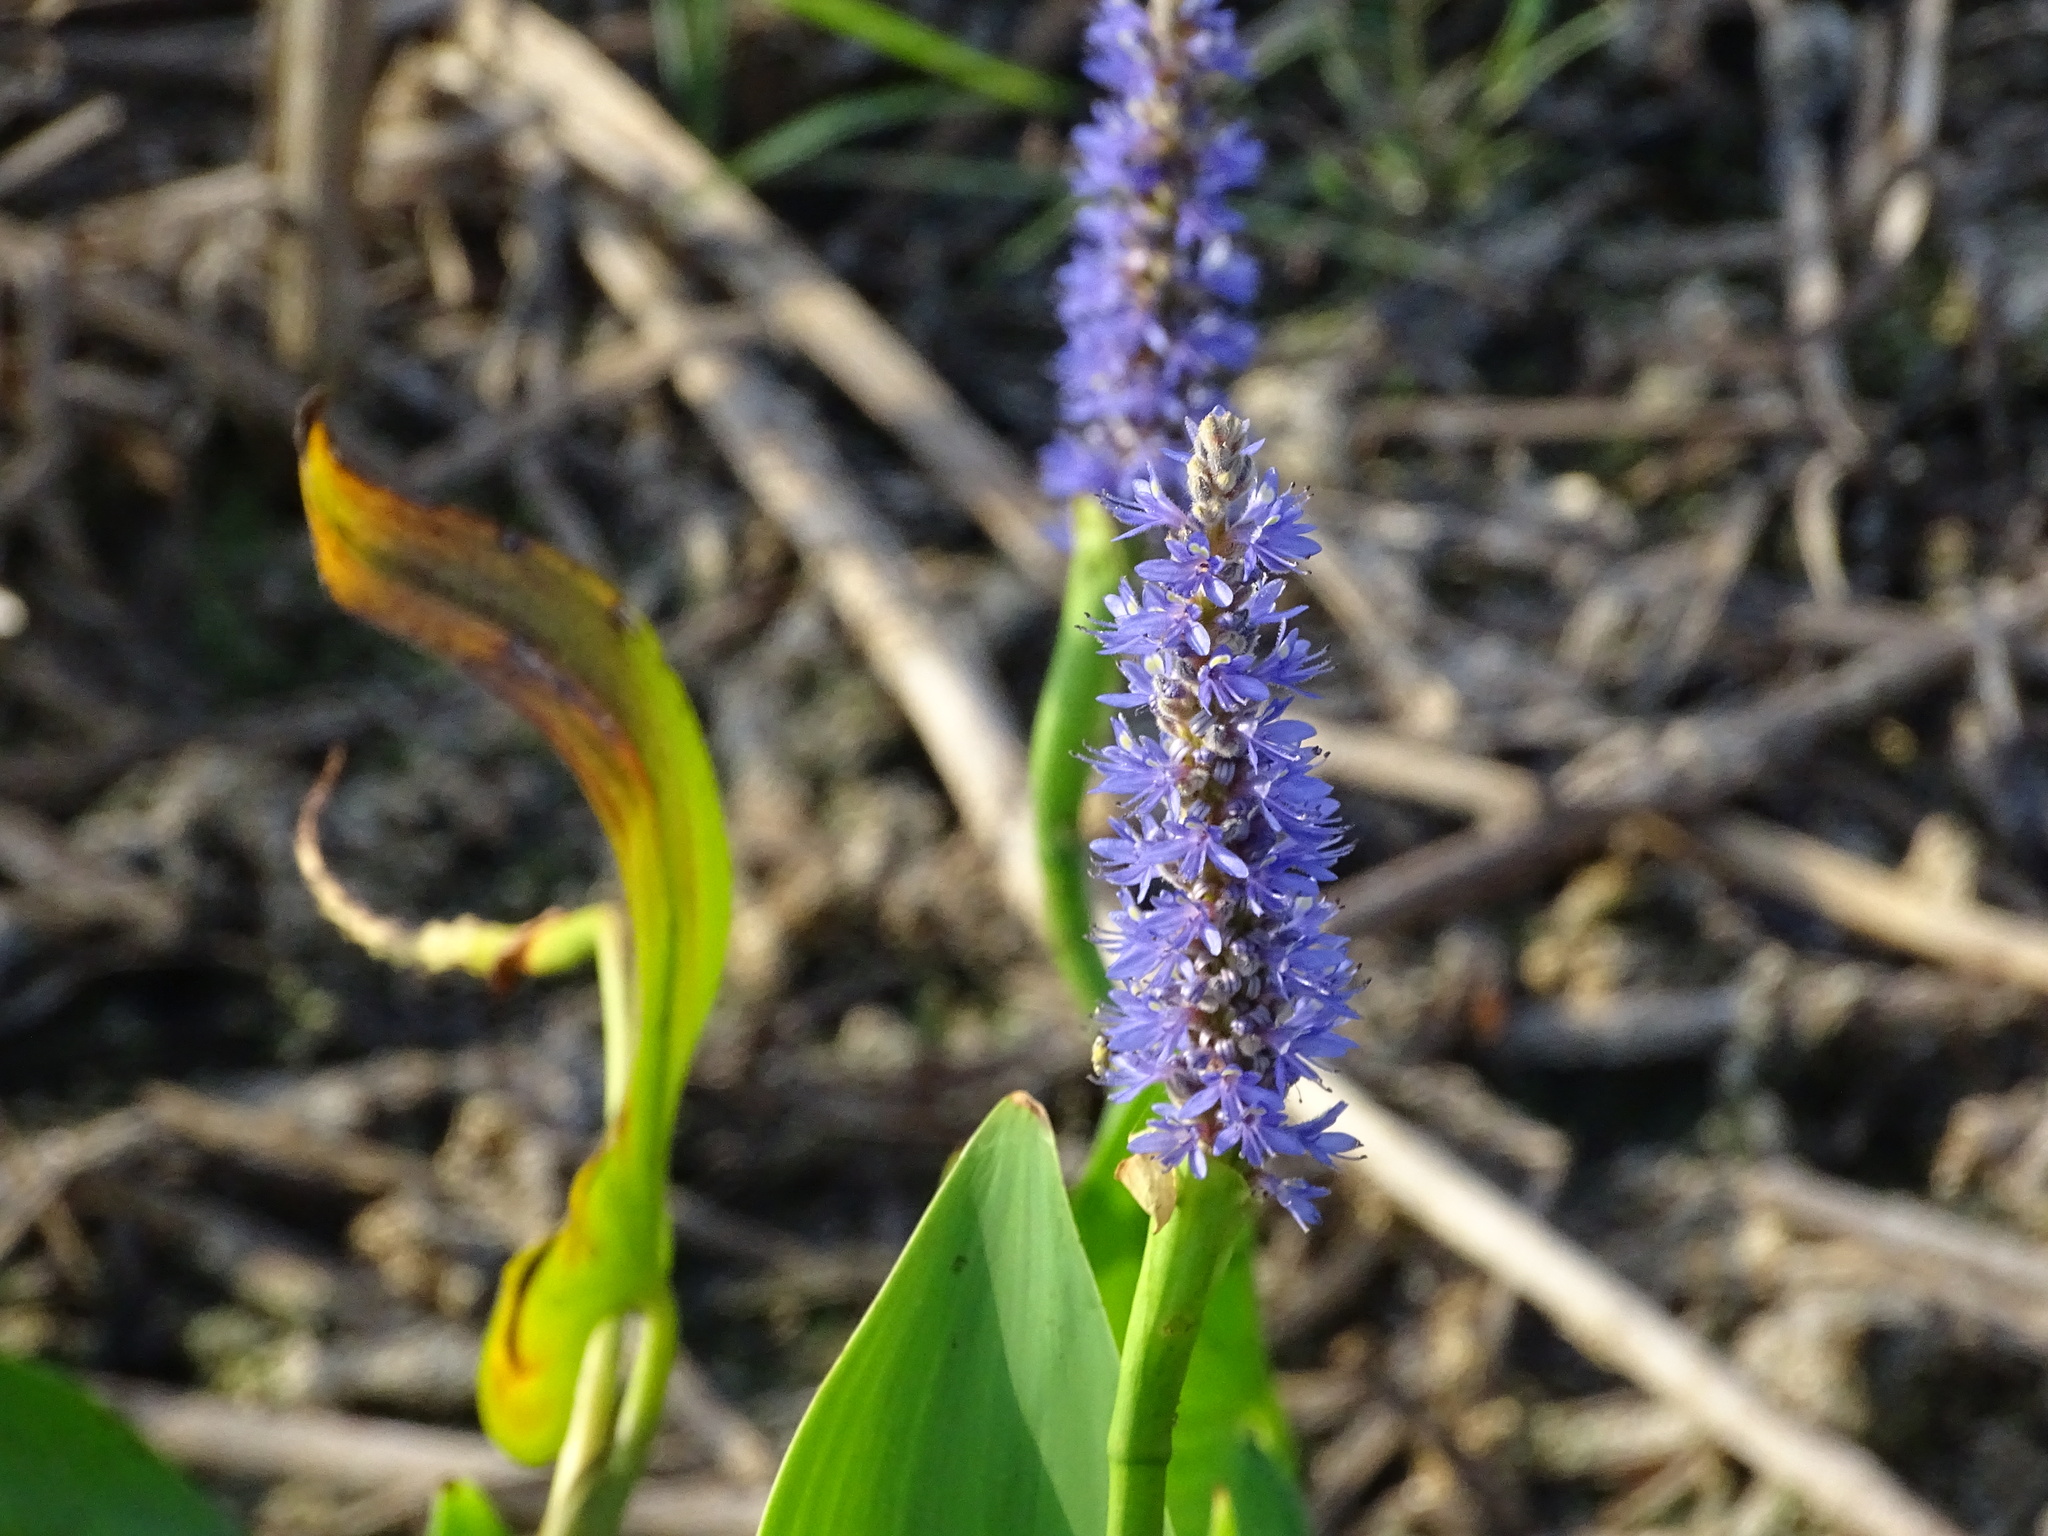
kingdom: Plantae
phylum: Tracheophyta
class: Liliopsida
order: Commelinales
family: Pontederiaceae
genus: Pontederia
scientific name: Pontederia cordata
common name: Pickerelweed
